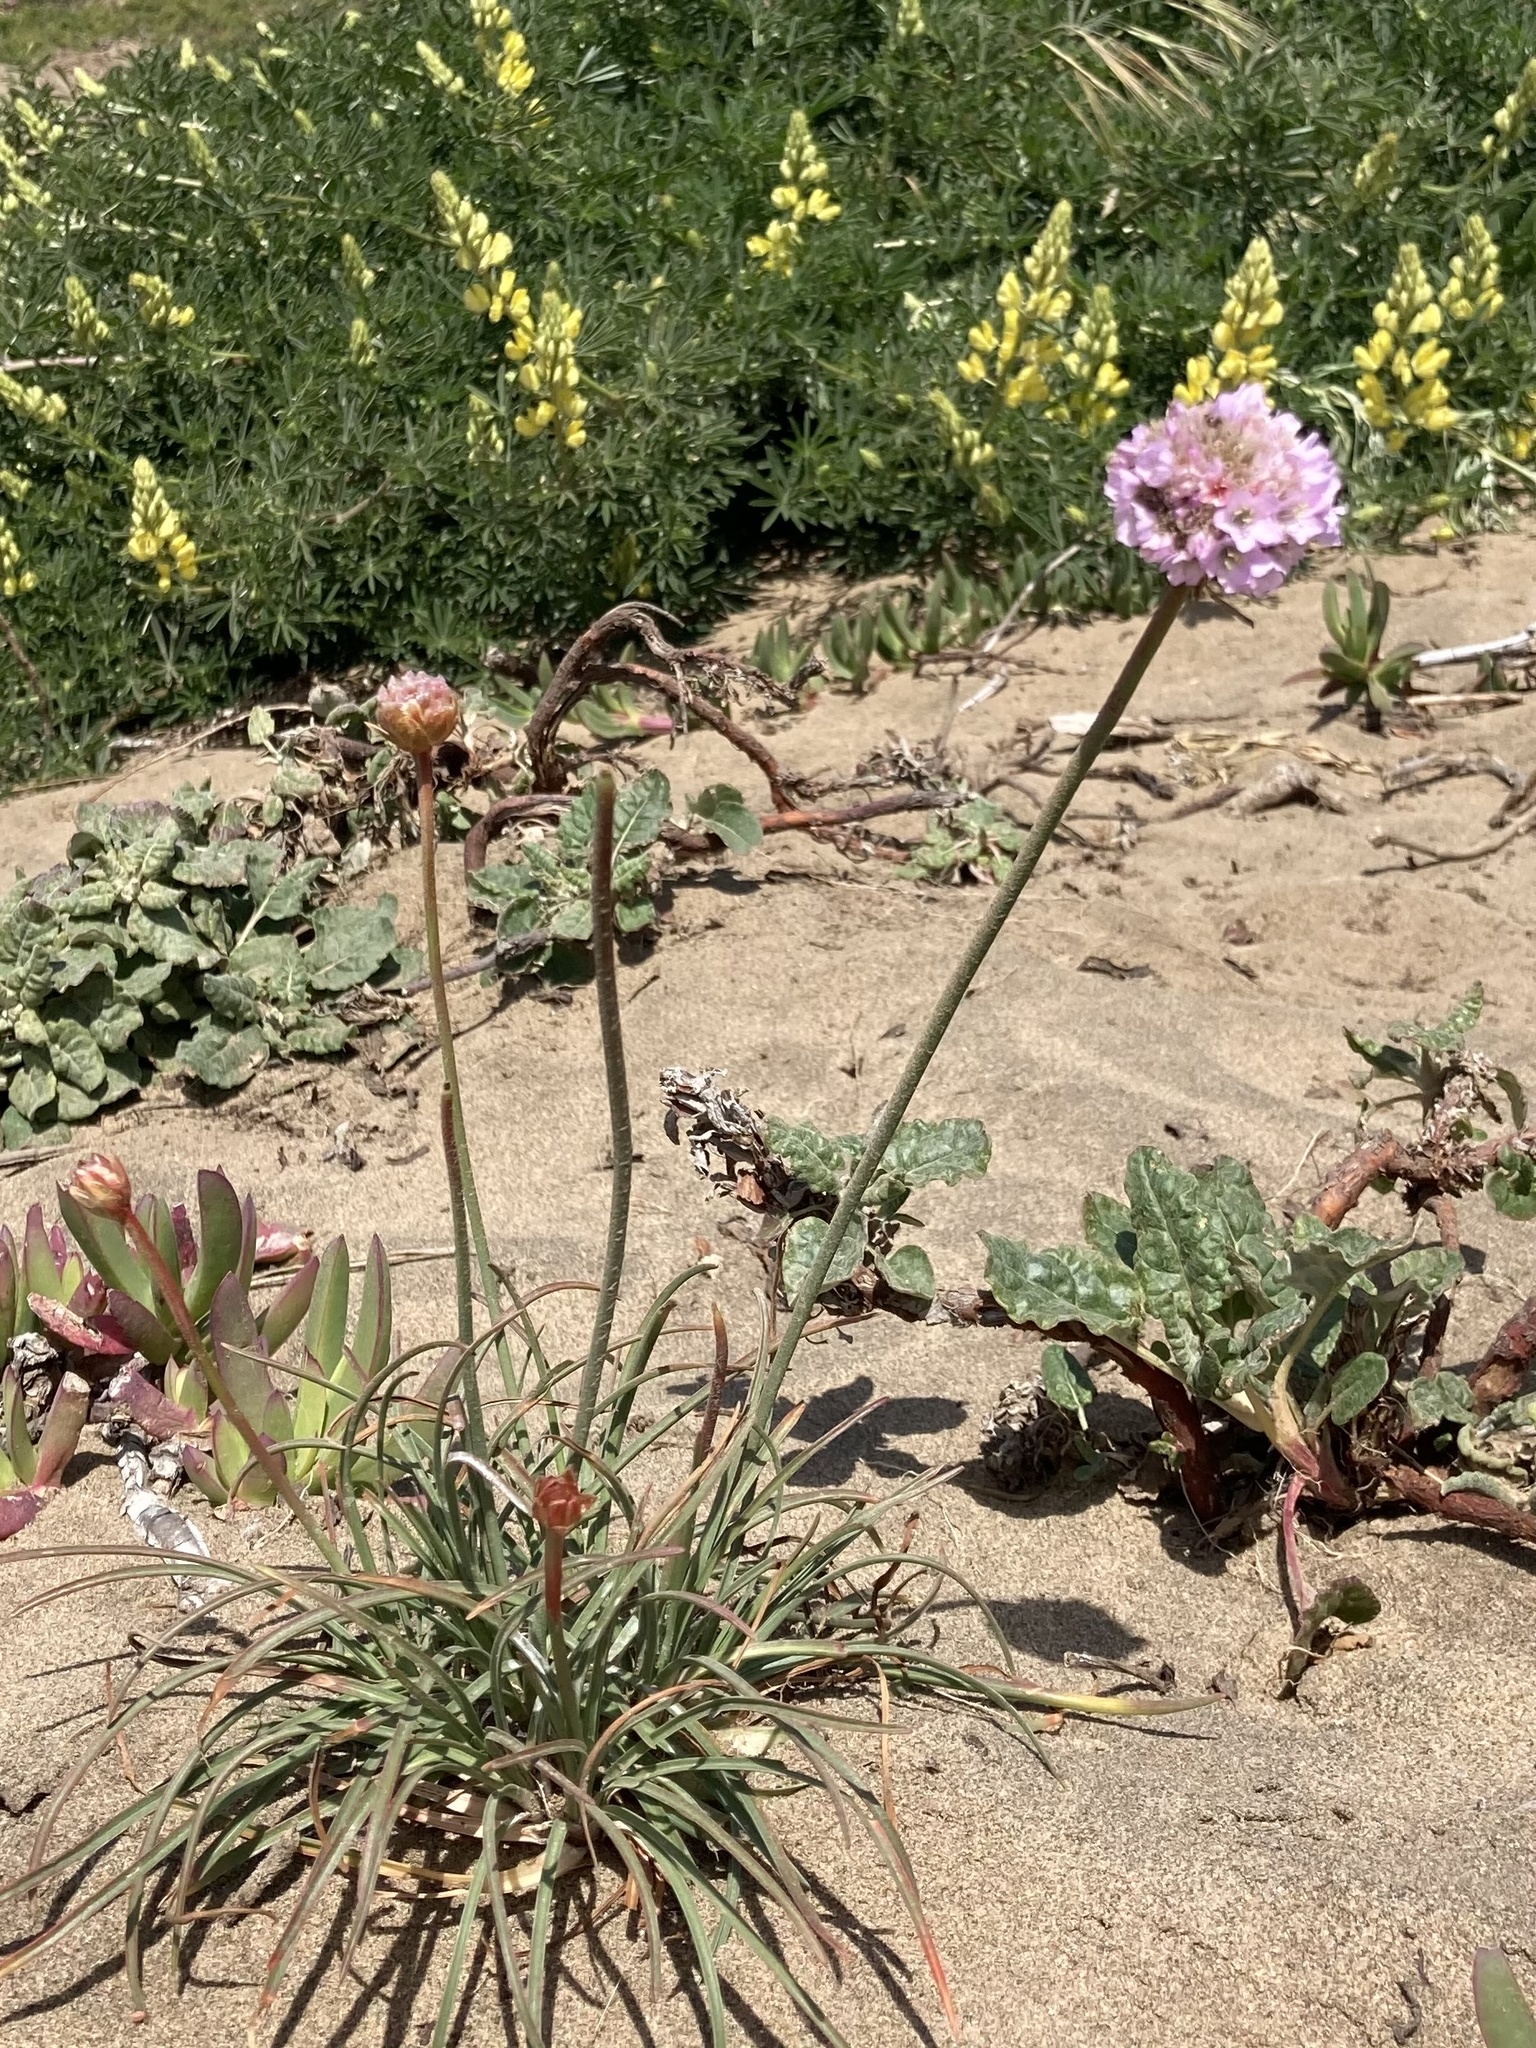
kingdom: Plantae
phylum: Tracheophyta
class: Magnoliopsida
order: Caryophyllales
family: Plumbaginaceae
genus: Armeria
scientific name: Armeria maritima
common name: Thrift
